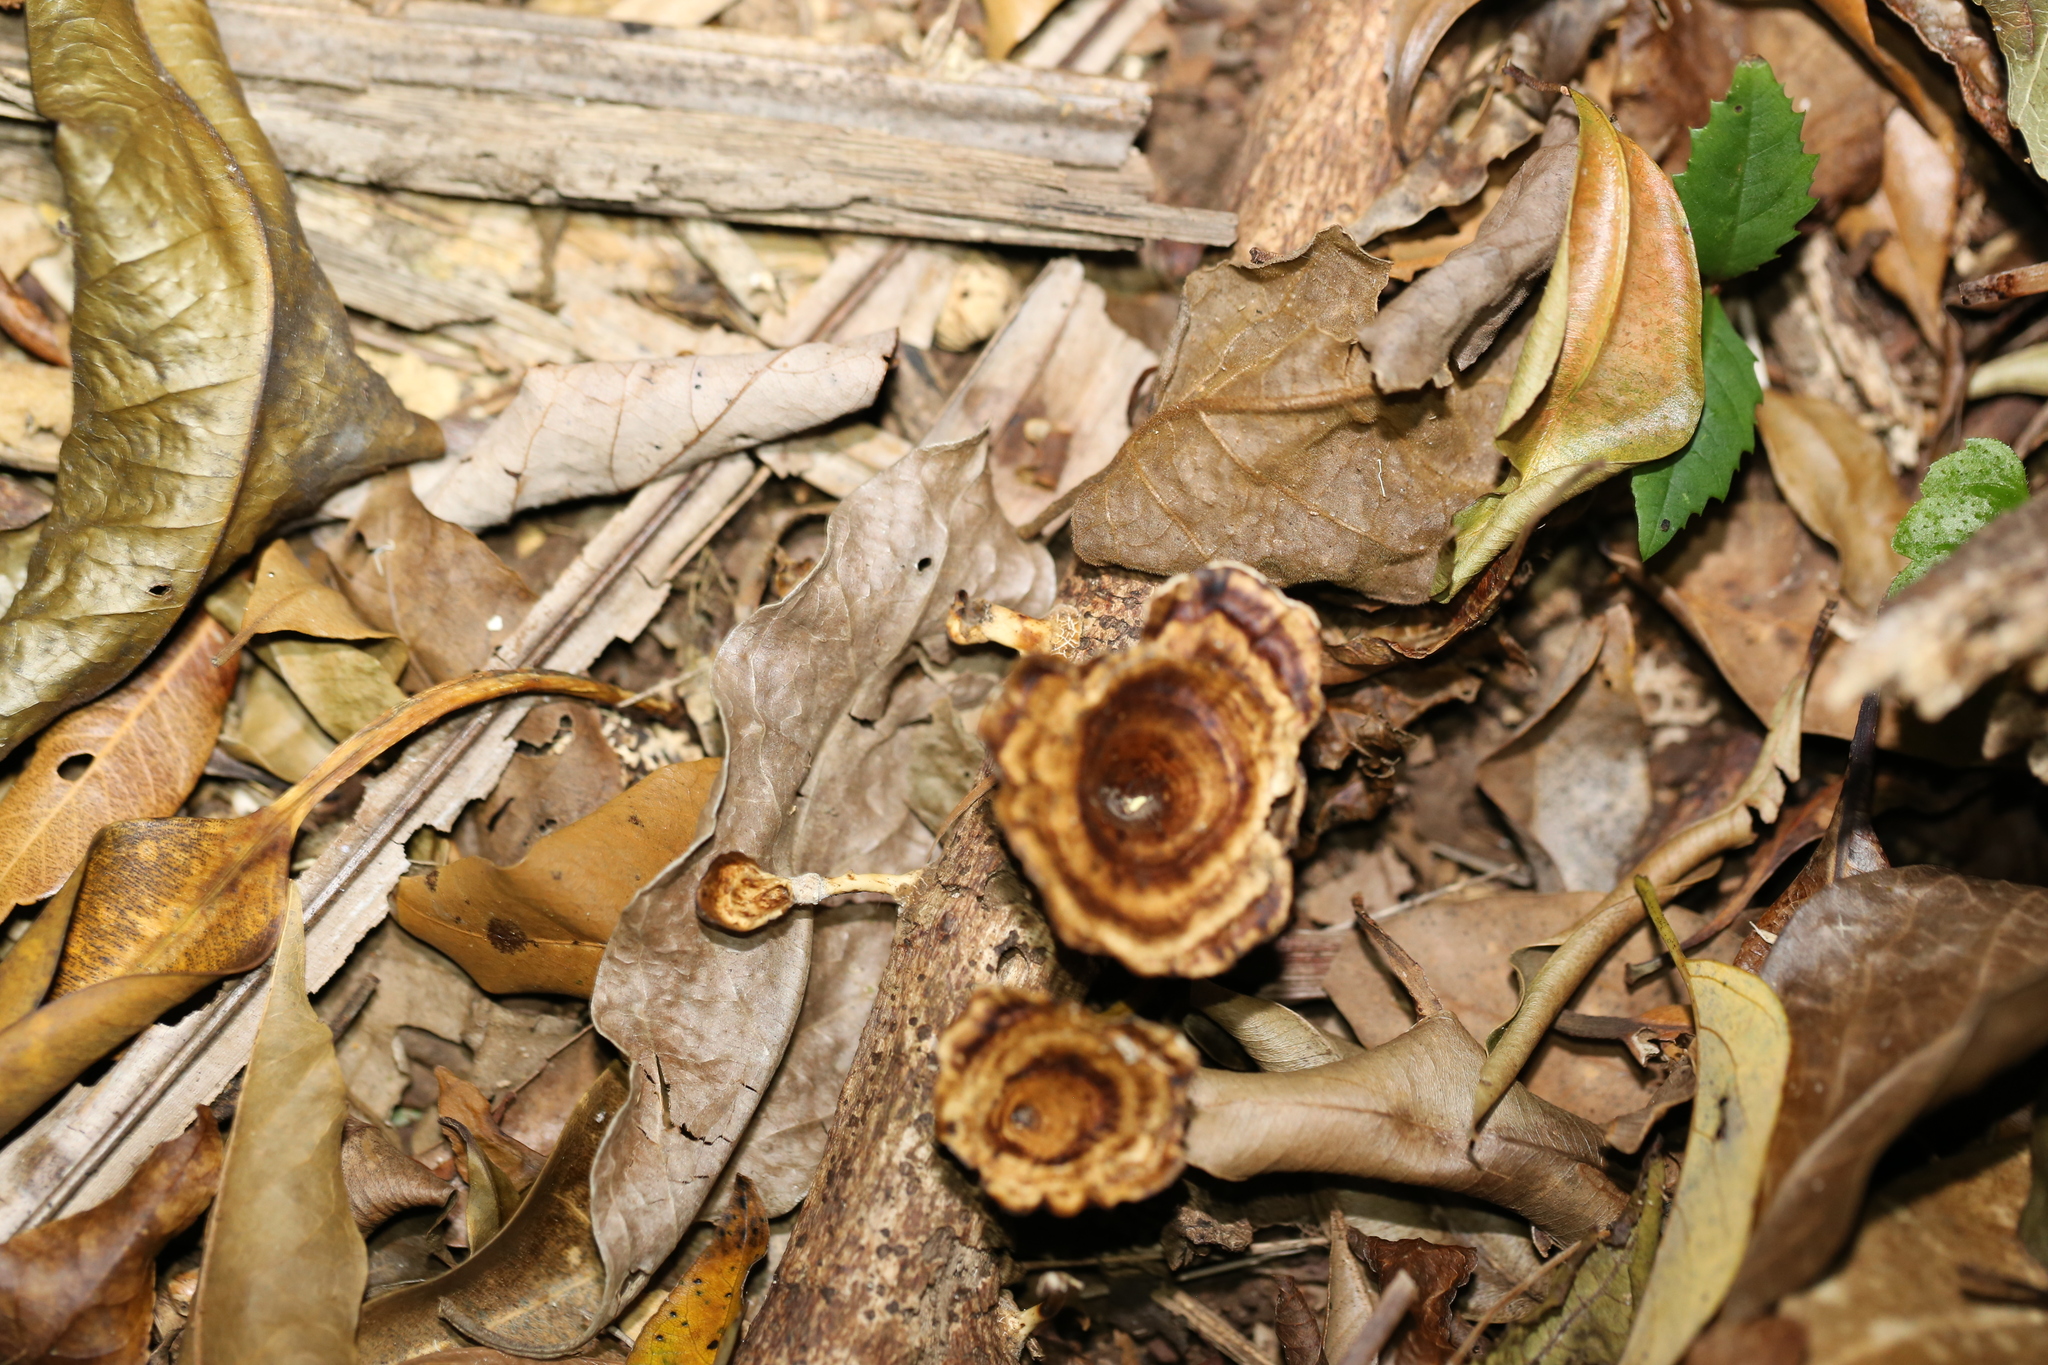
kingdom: Fungi
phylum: Basidiomycota
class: Agaricomycetes
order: Polyporales
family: Polyporaceae
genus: Microporus
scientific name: Microporus xanthopus
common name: Yellow-stemmed micropore
